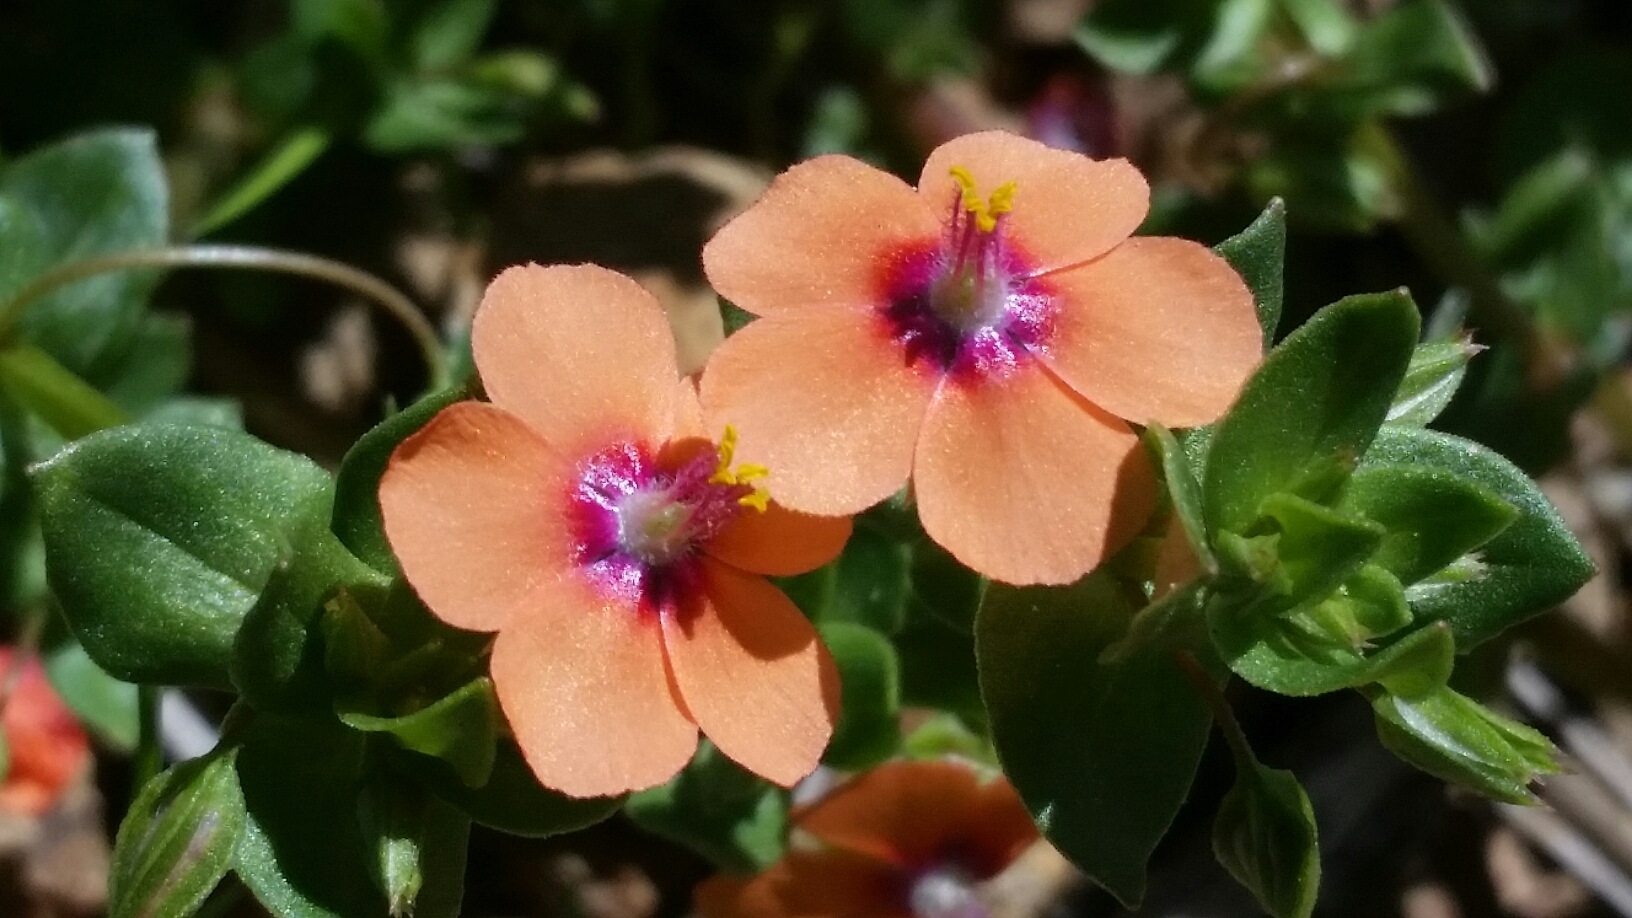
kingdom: Plantae
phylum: Tracheophyta
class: Magnoliopsida
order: Ericales
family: Primulaceae
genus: Lysimachia
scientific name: Lysimachia arvensis
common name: Scarlet pimpernel
